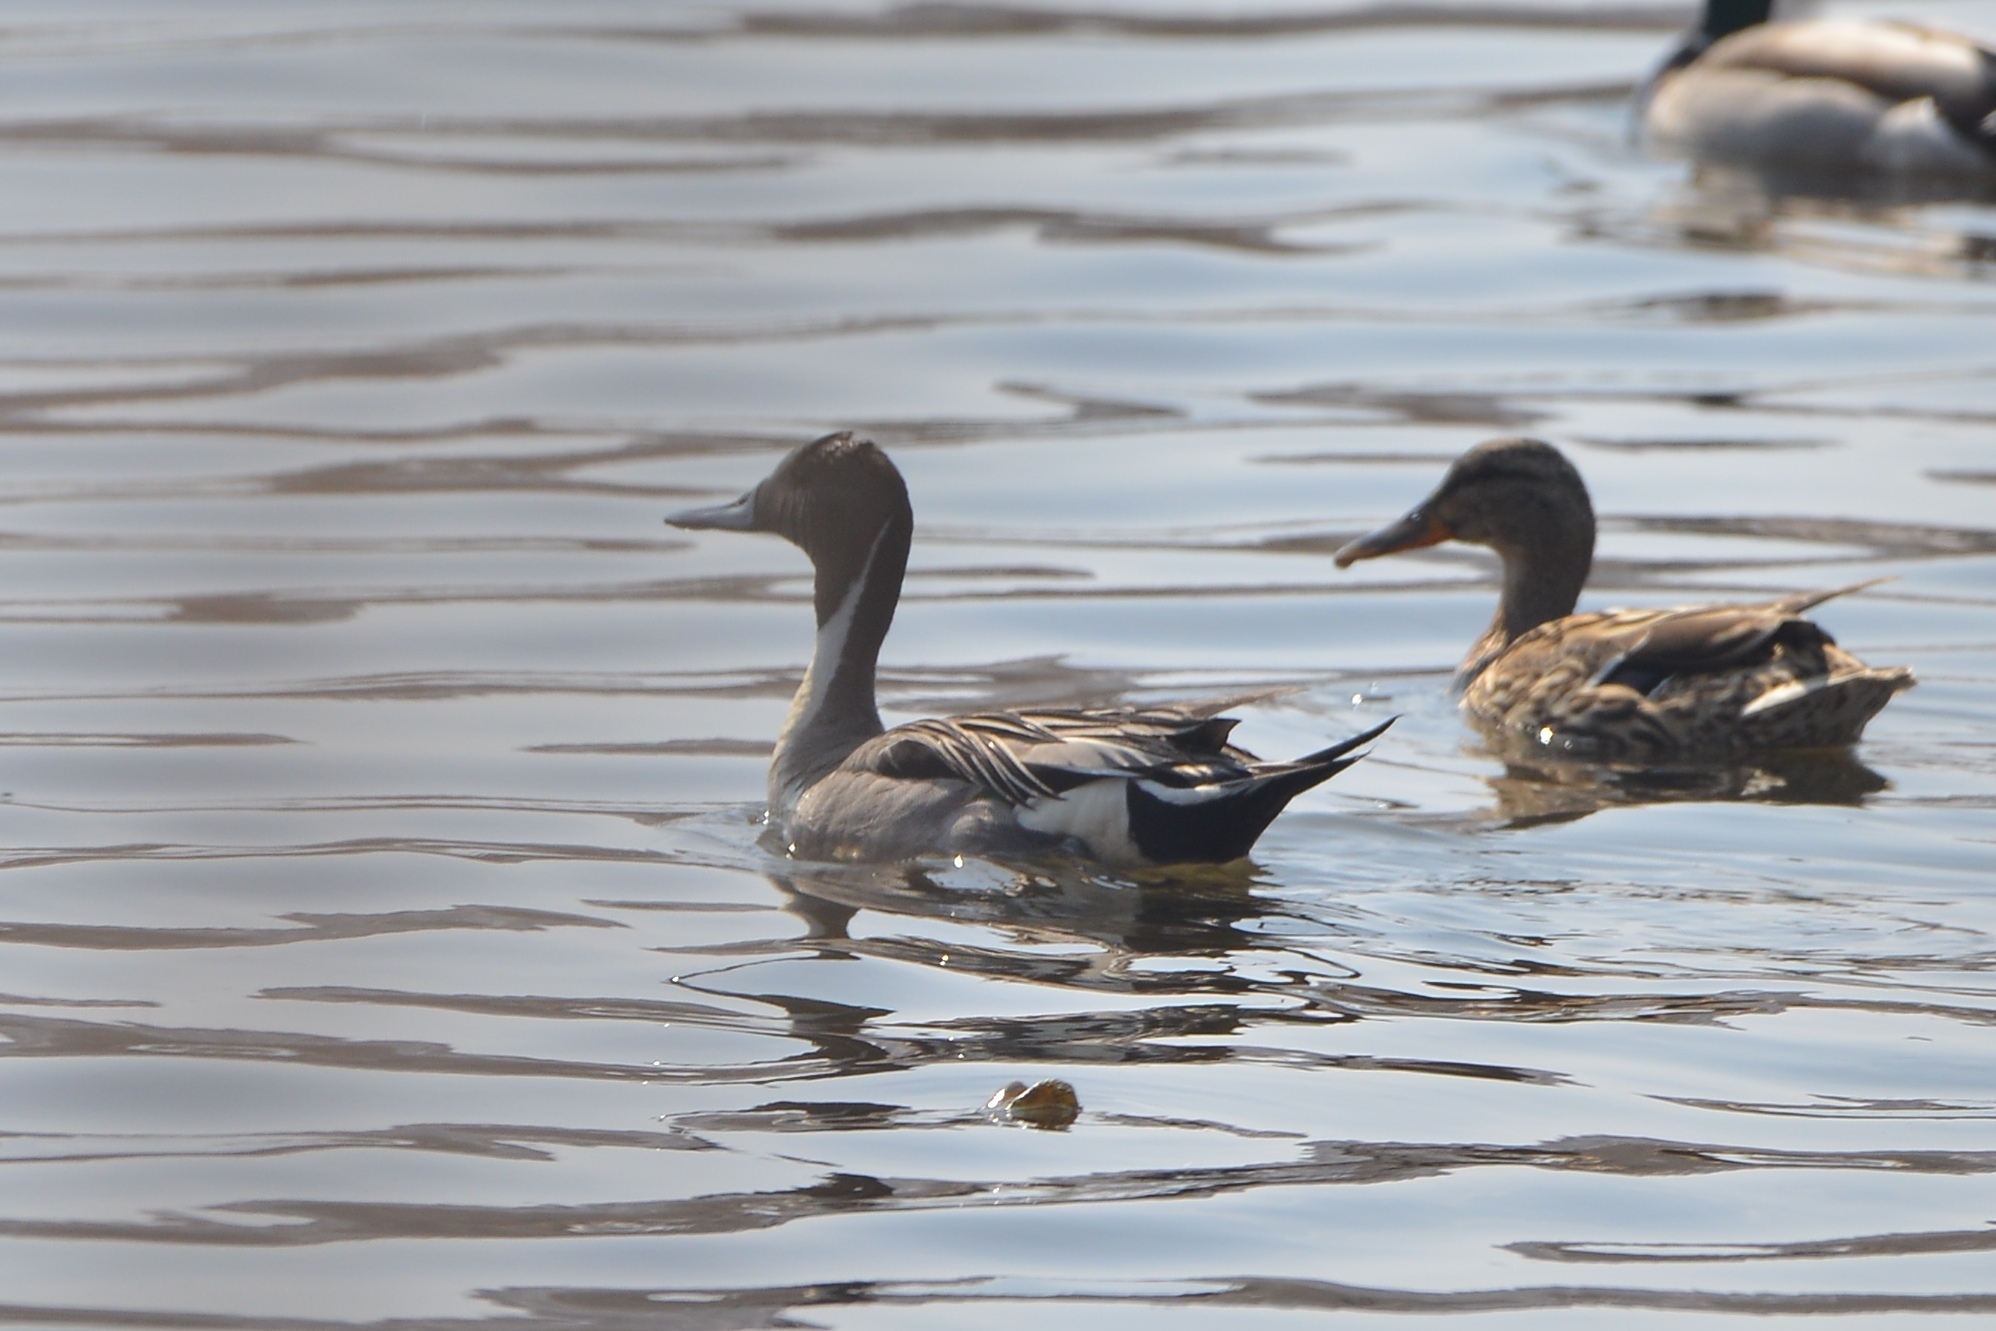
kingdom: Animalia
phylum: Chordata
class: Aves
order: Anseriformes
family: Anatidae
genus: Anas
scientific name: Anas acuta
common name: Northern pintail
